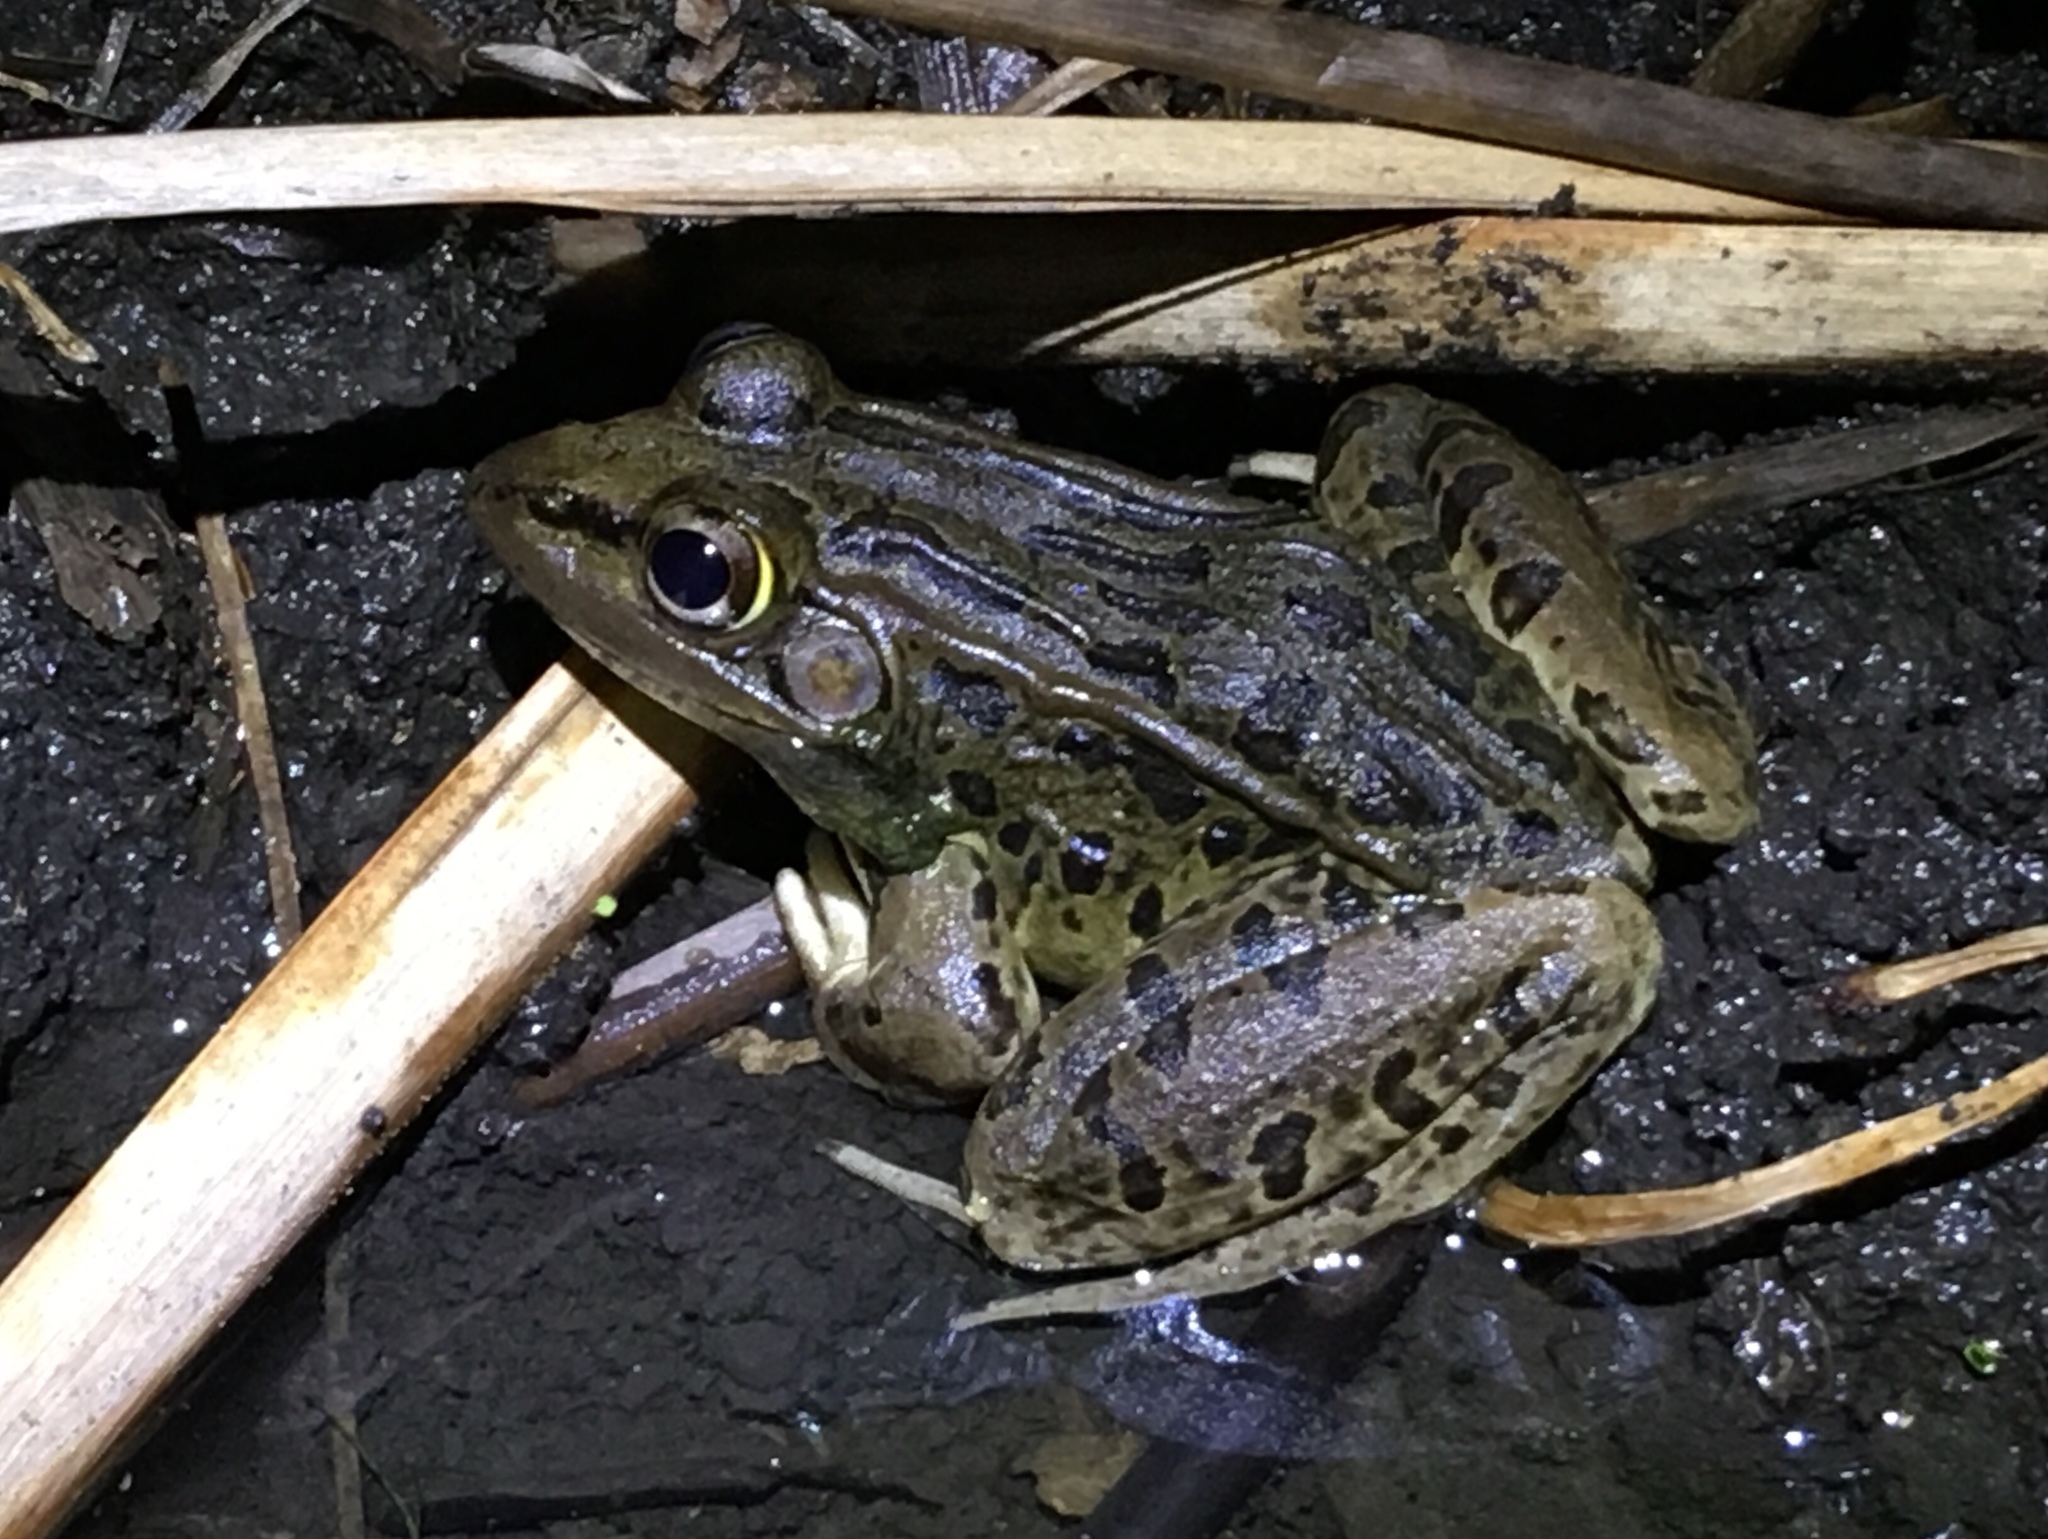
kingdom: Animalia
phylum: Chordata
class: Amphibia
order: Anura
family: Ranidae
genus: Lithobates
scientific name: Lithobates forreri
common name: Forrer's grass frog
